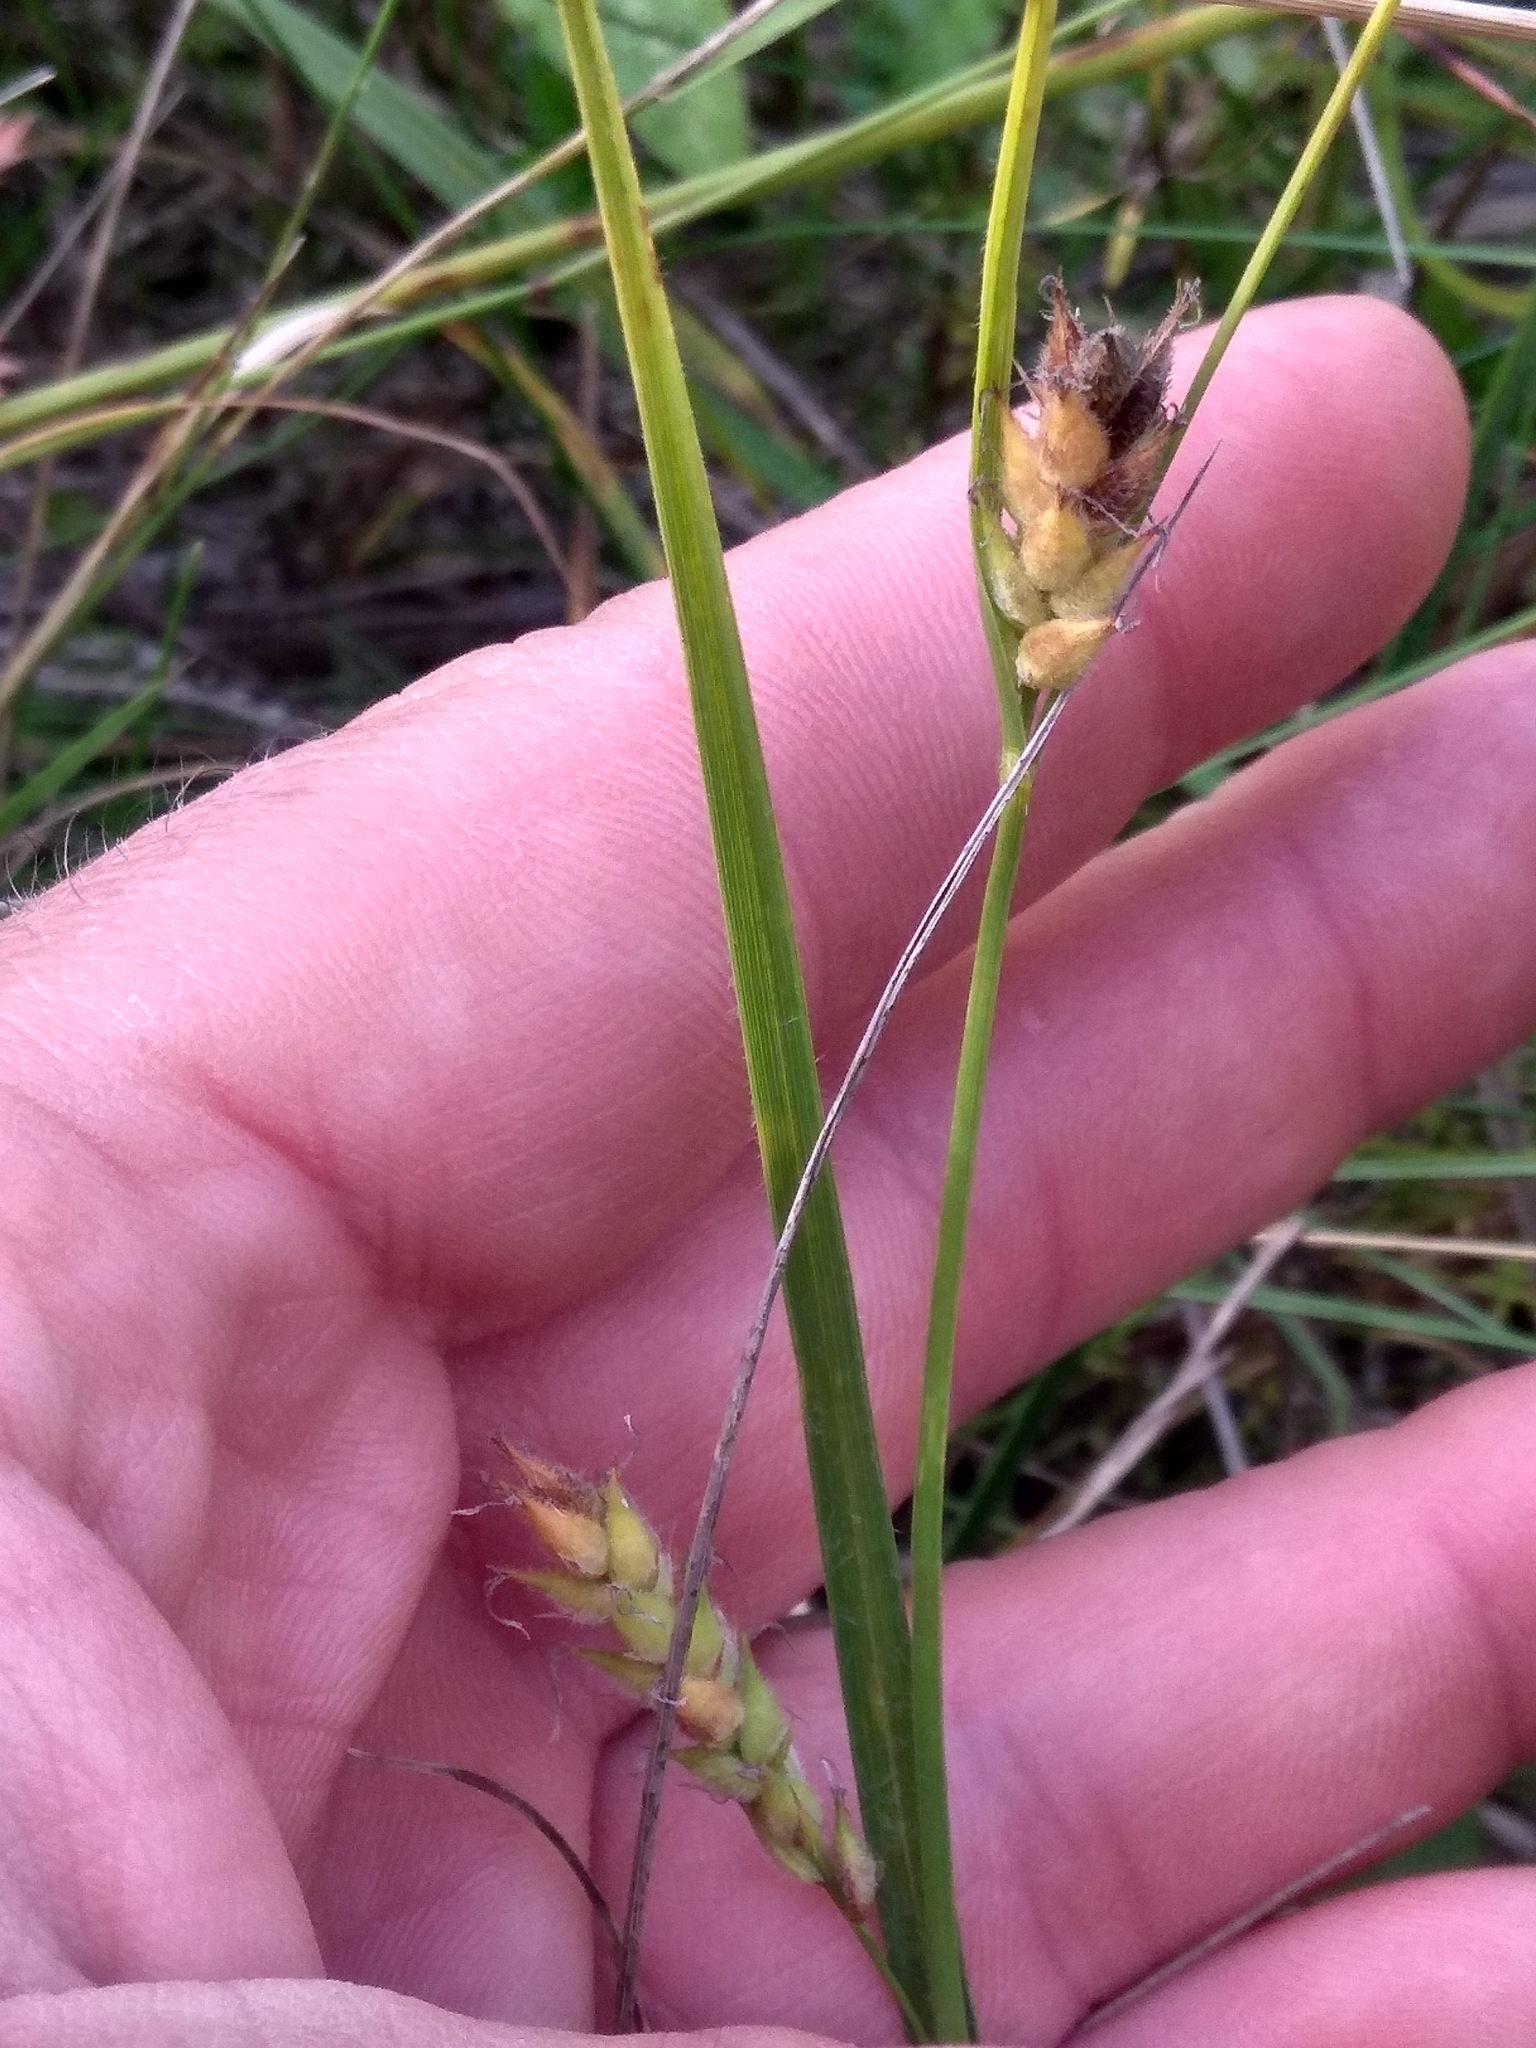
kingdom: Plantae
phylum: Tracheophyta
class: Liliopsida
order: Poales
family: Cyperaceae
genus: Carex
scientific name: Carex hirta
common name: Hairy sedge
